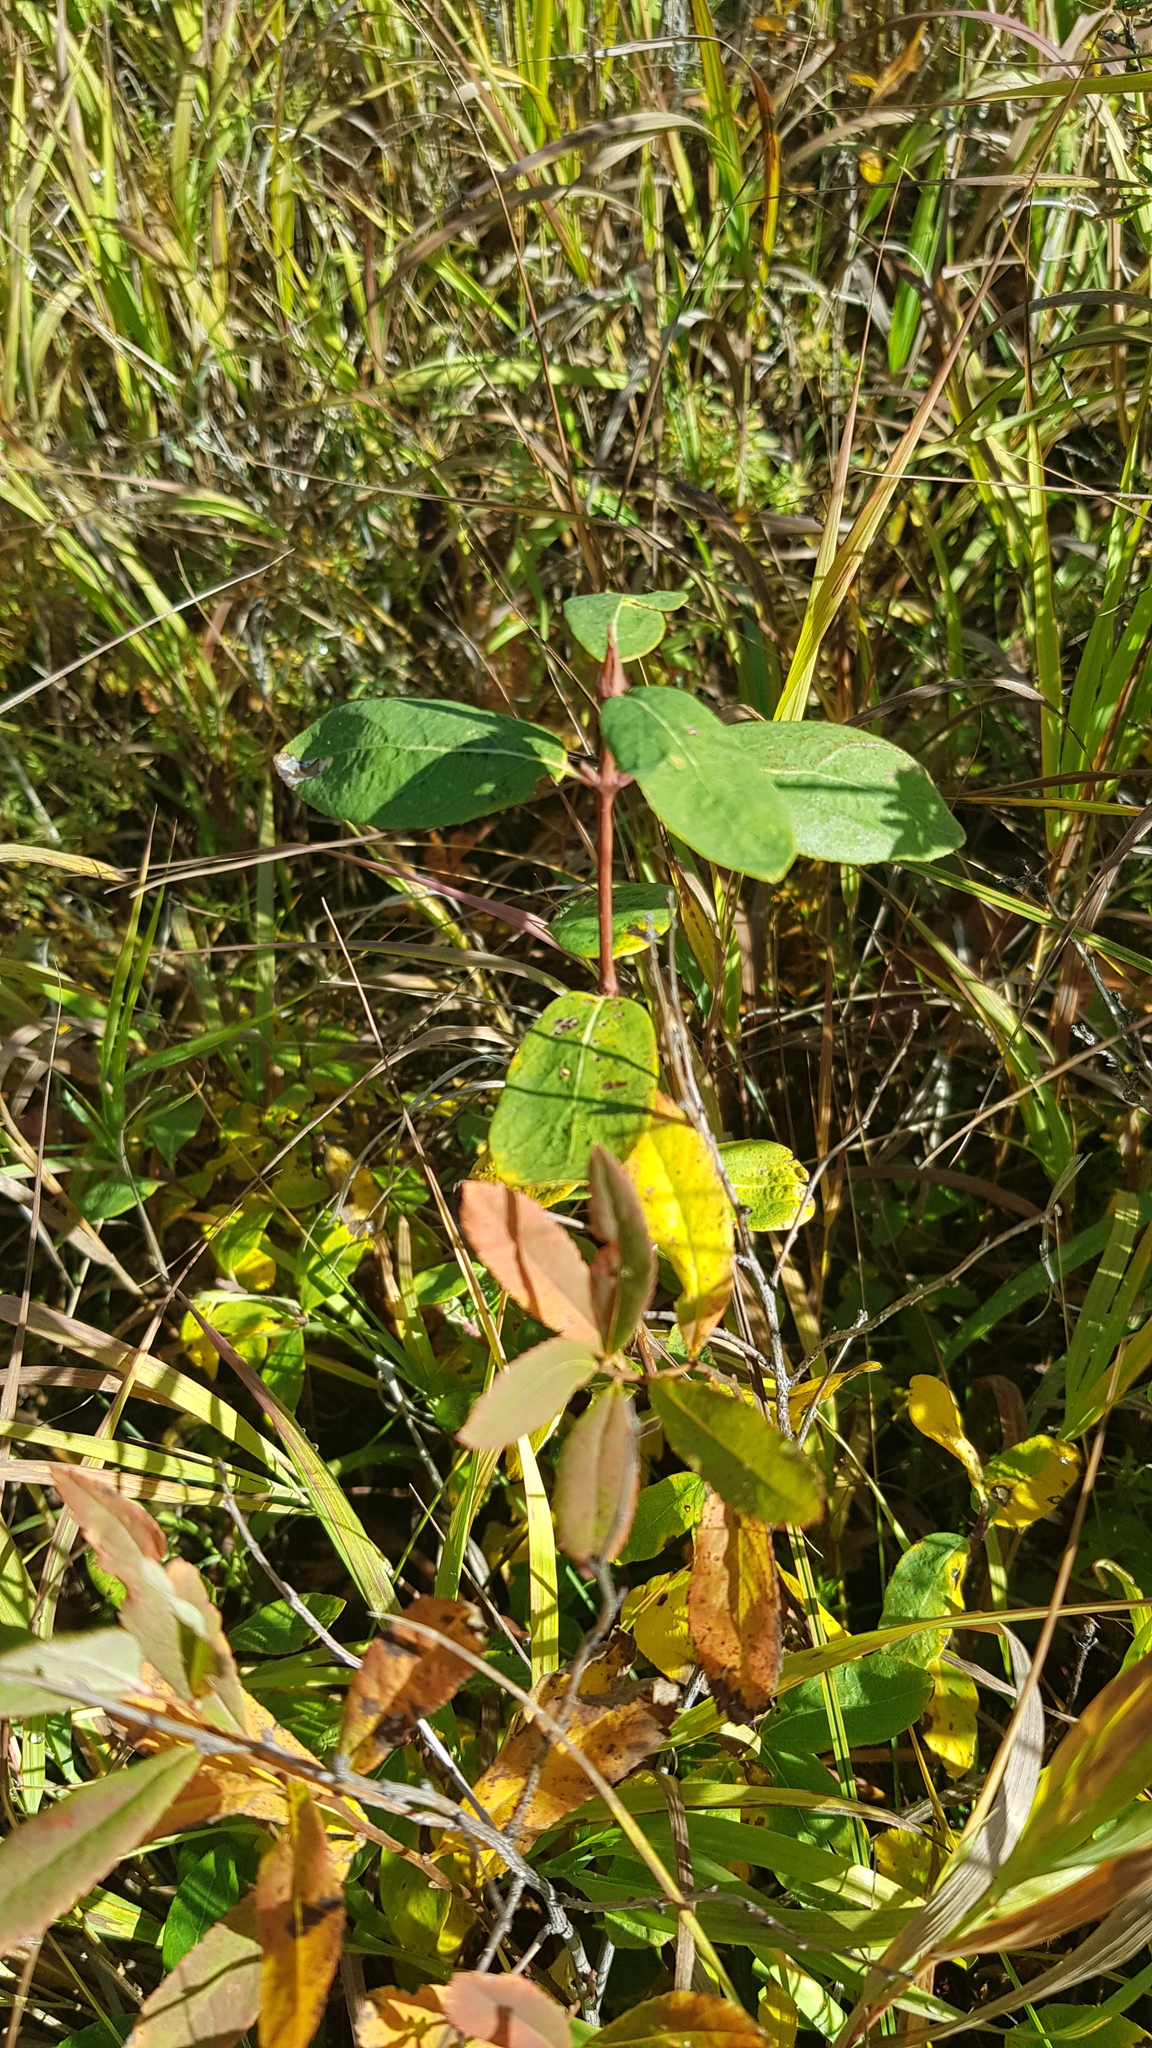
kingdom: Plantae
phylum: Tracheophyta
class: Magnoliopsida
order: Dipsacales
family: Caprifoliaceae
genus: Lonicera
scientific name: Lonicera caerulea
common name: Blue honeysuckle
